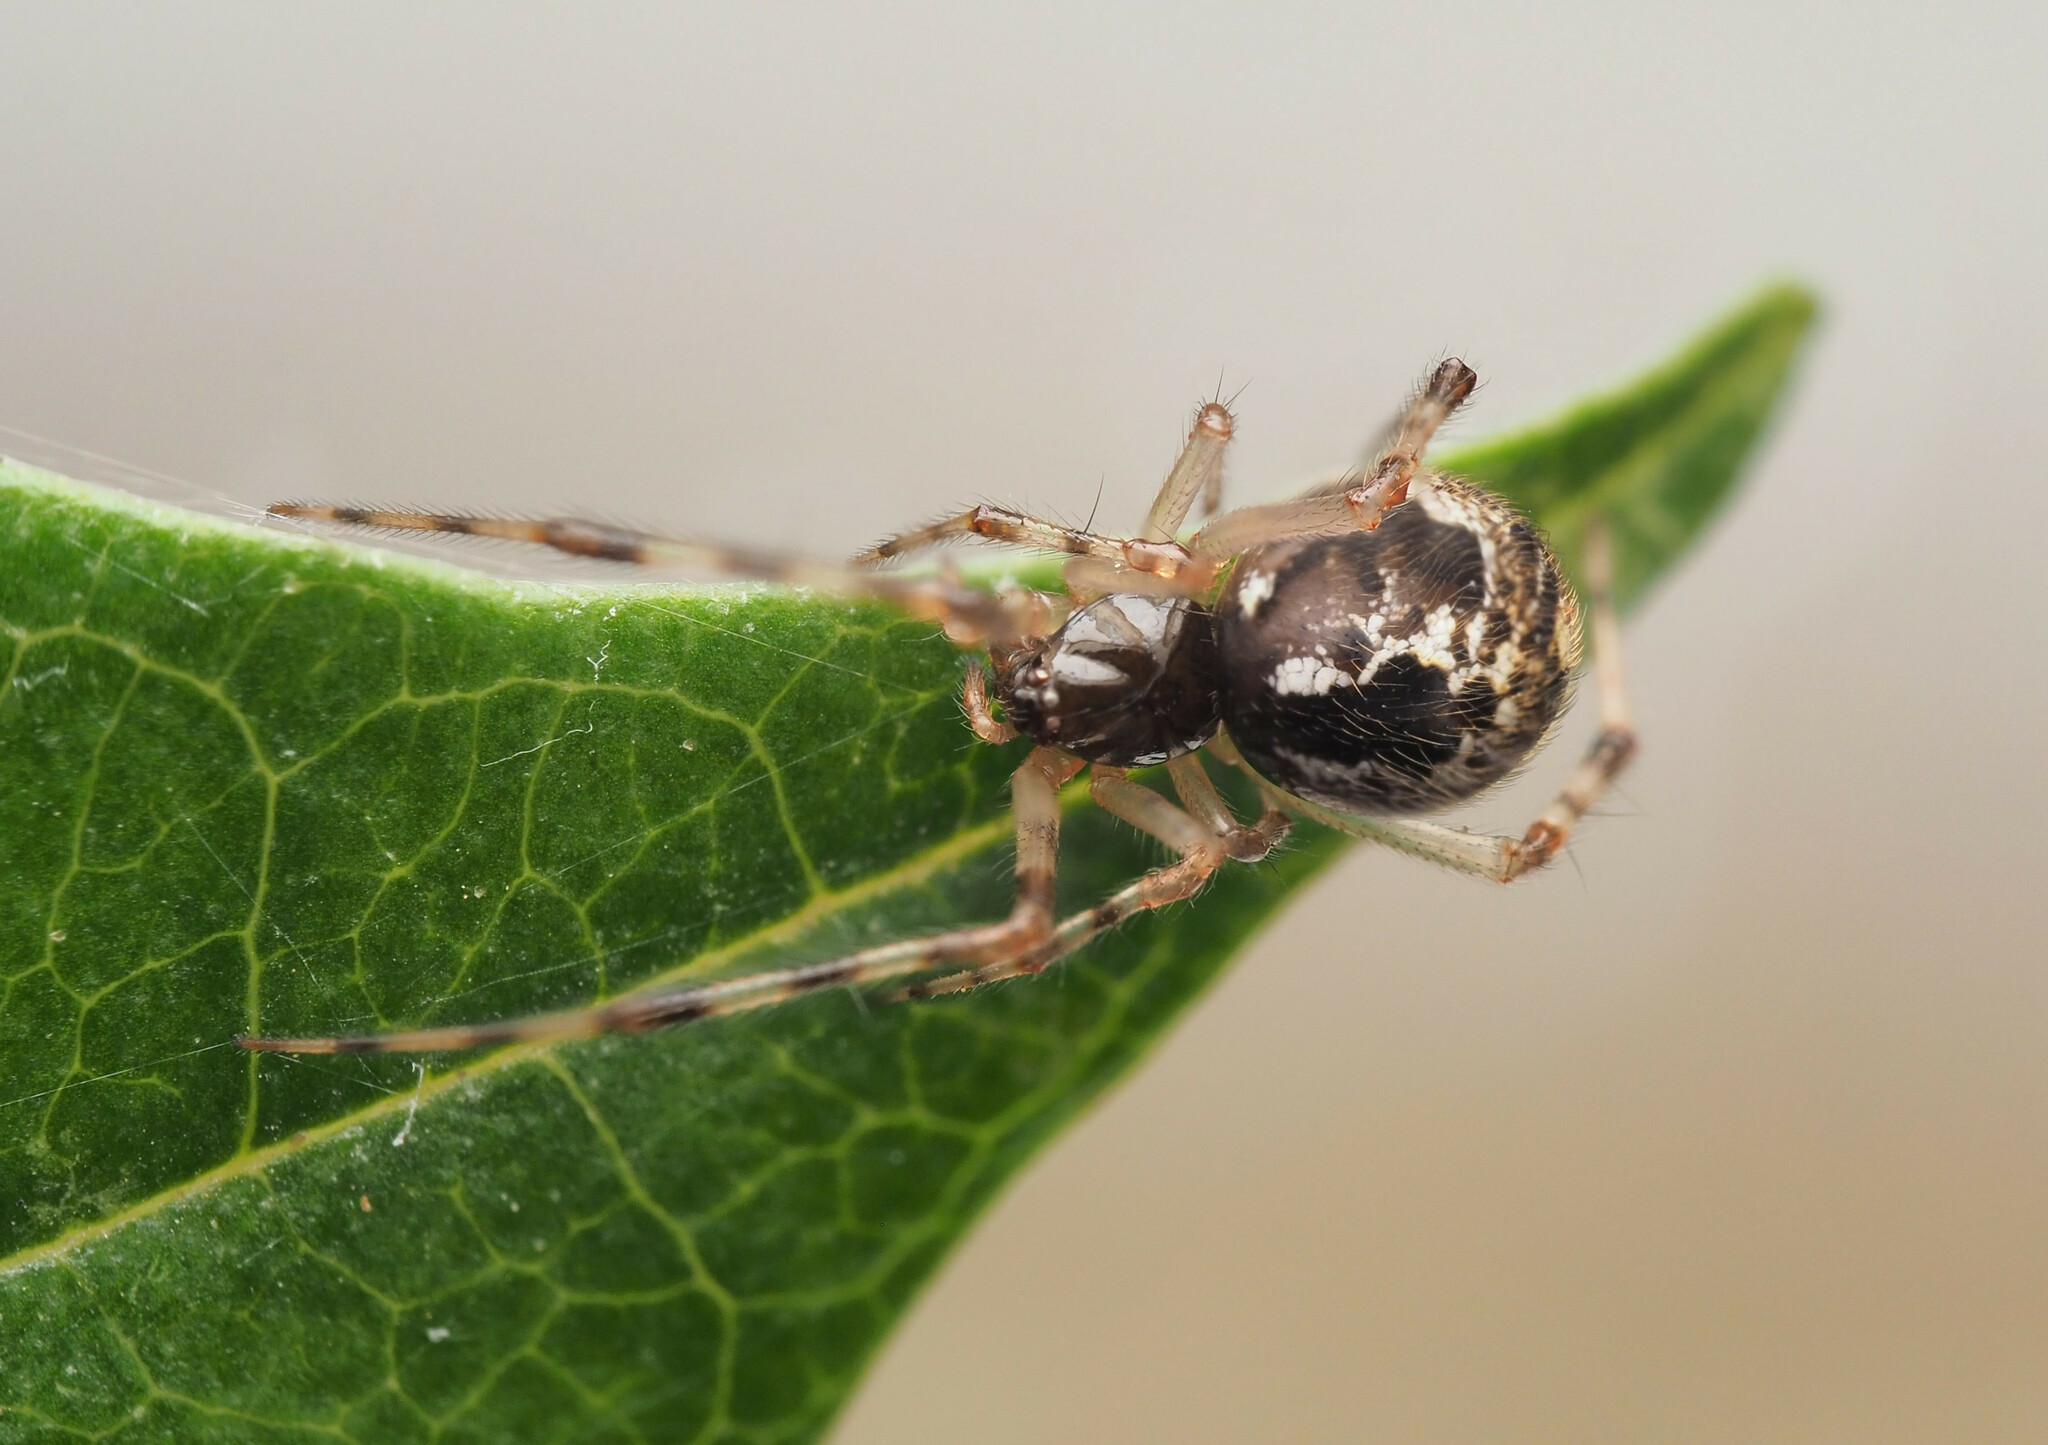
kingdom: Animalia
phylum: Arthropoda
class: Arachnida
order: Araneae
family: Theridiidae
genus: Cryptachaea
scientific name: Cryptachaea
